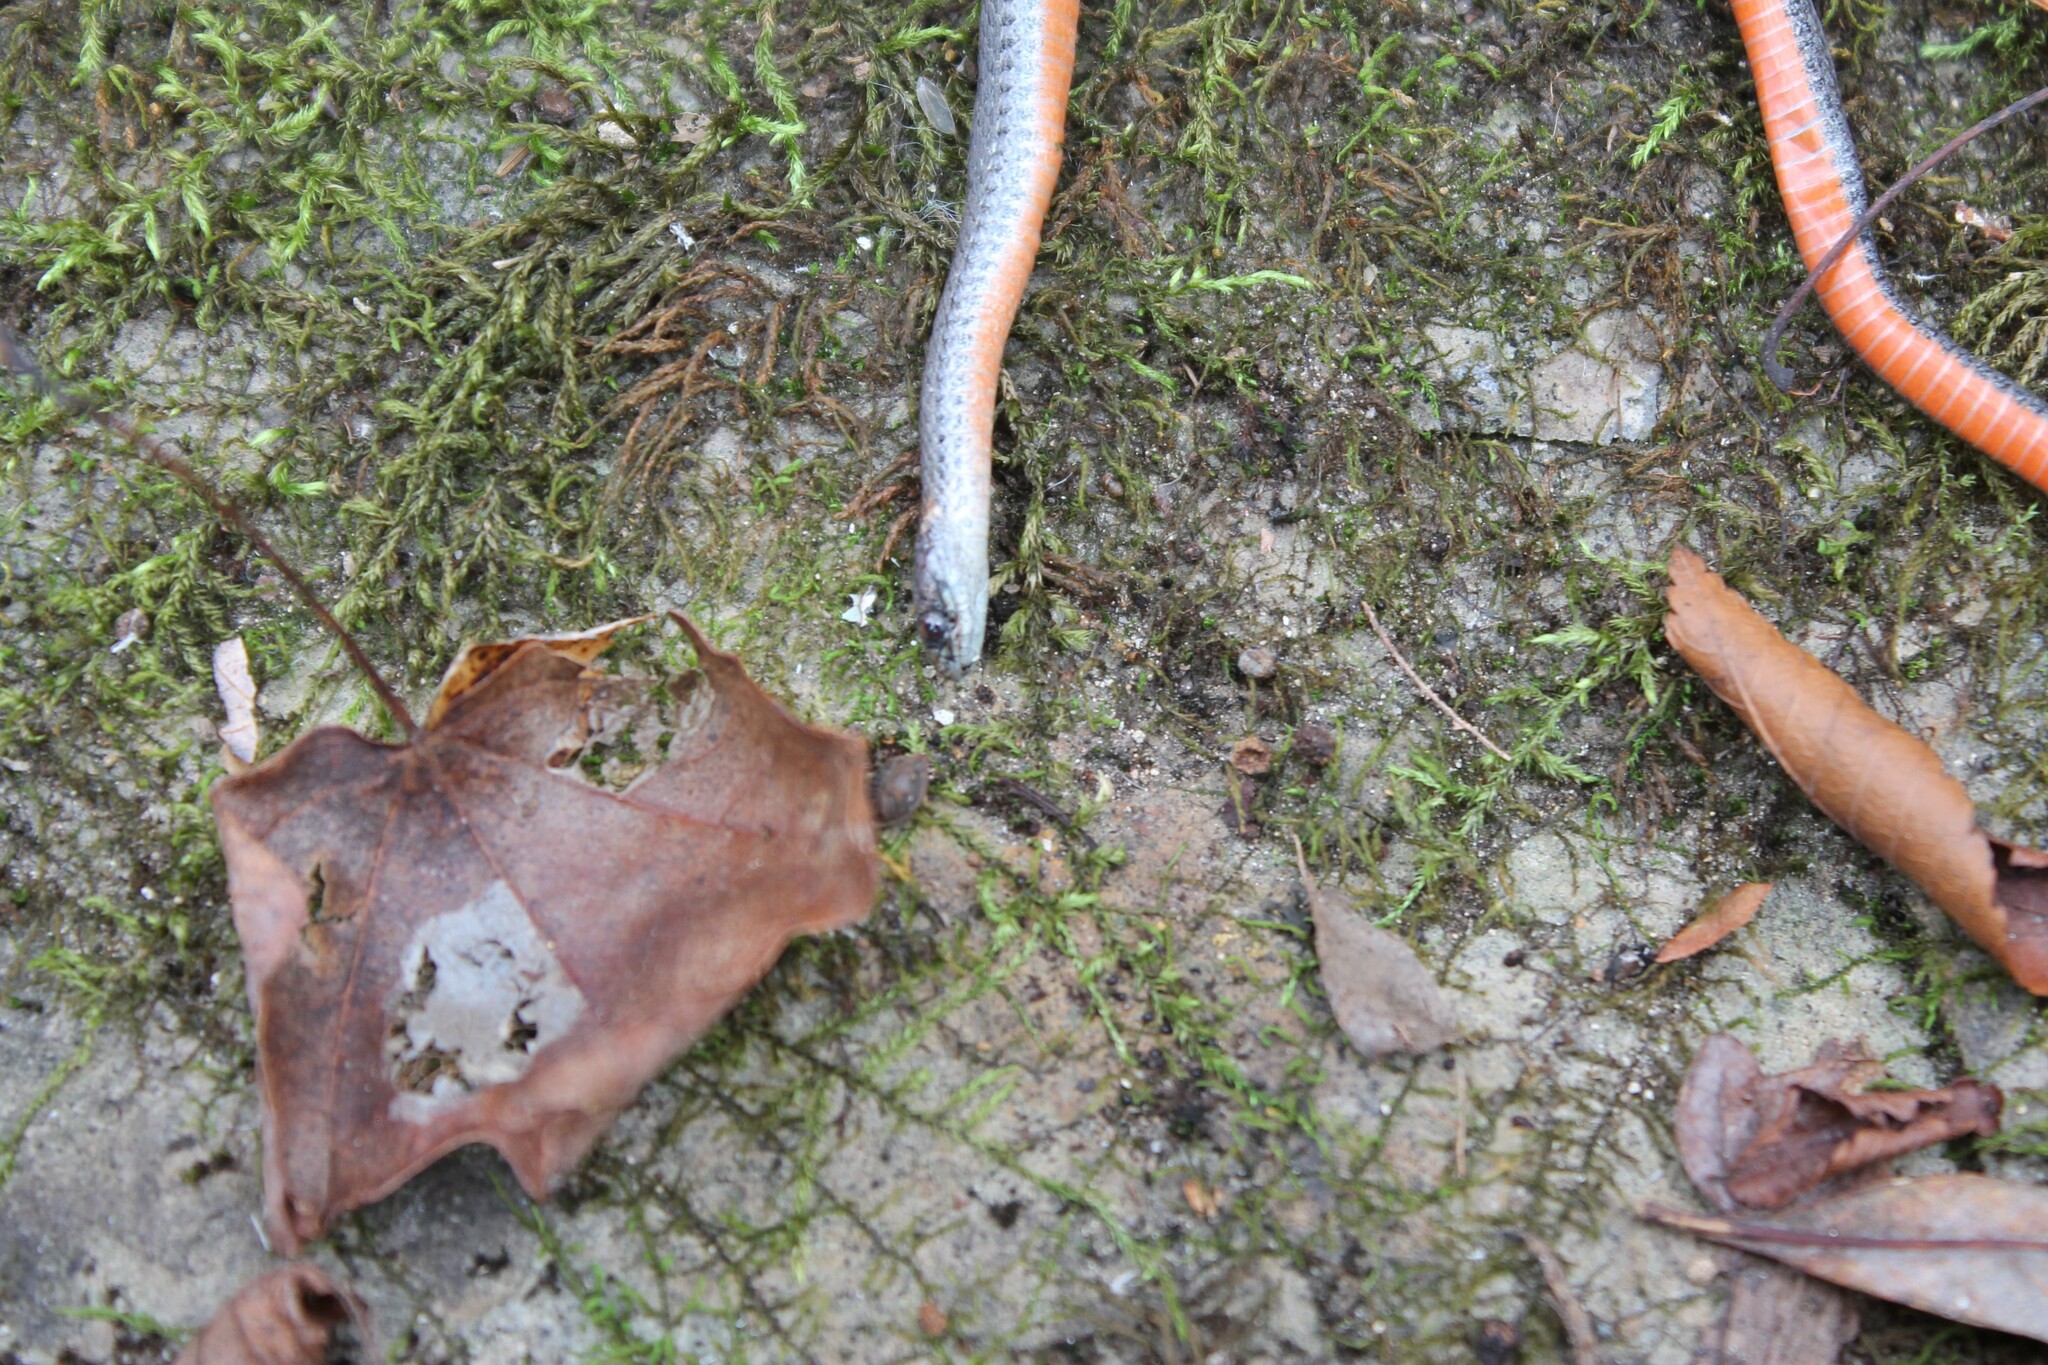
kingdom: Animalia
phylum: Chordata
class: Squamata
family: Colubridae
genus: Storeria
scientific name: Storeria occipitomaculata
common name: Redbelly snake
